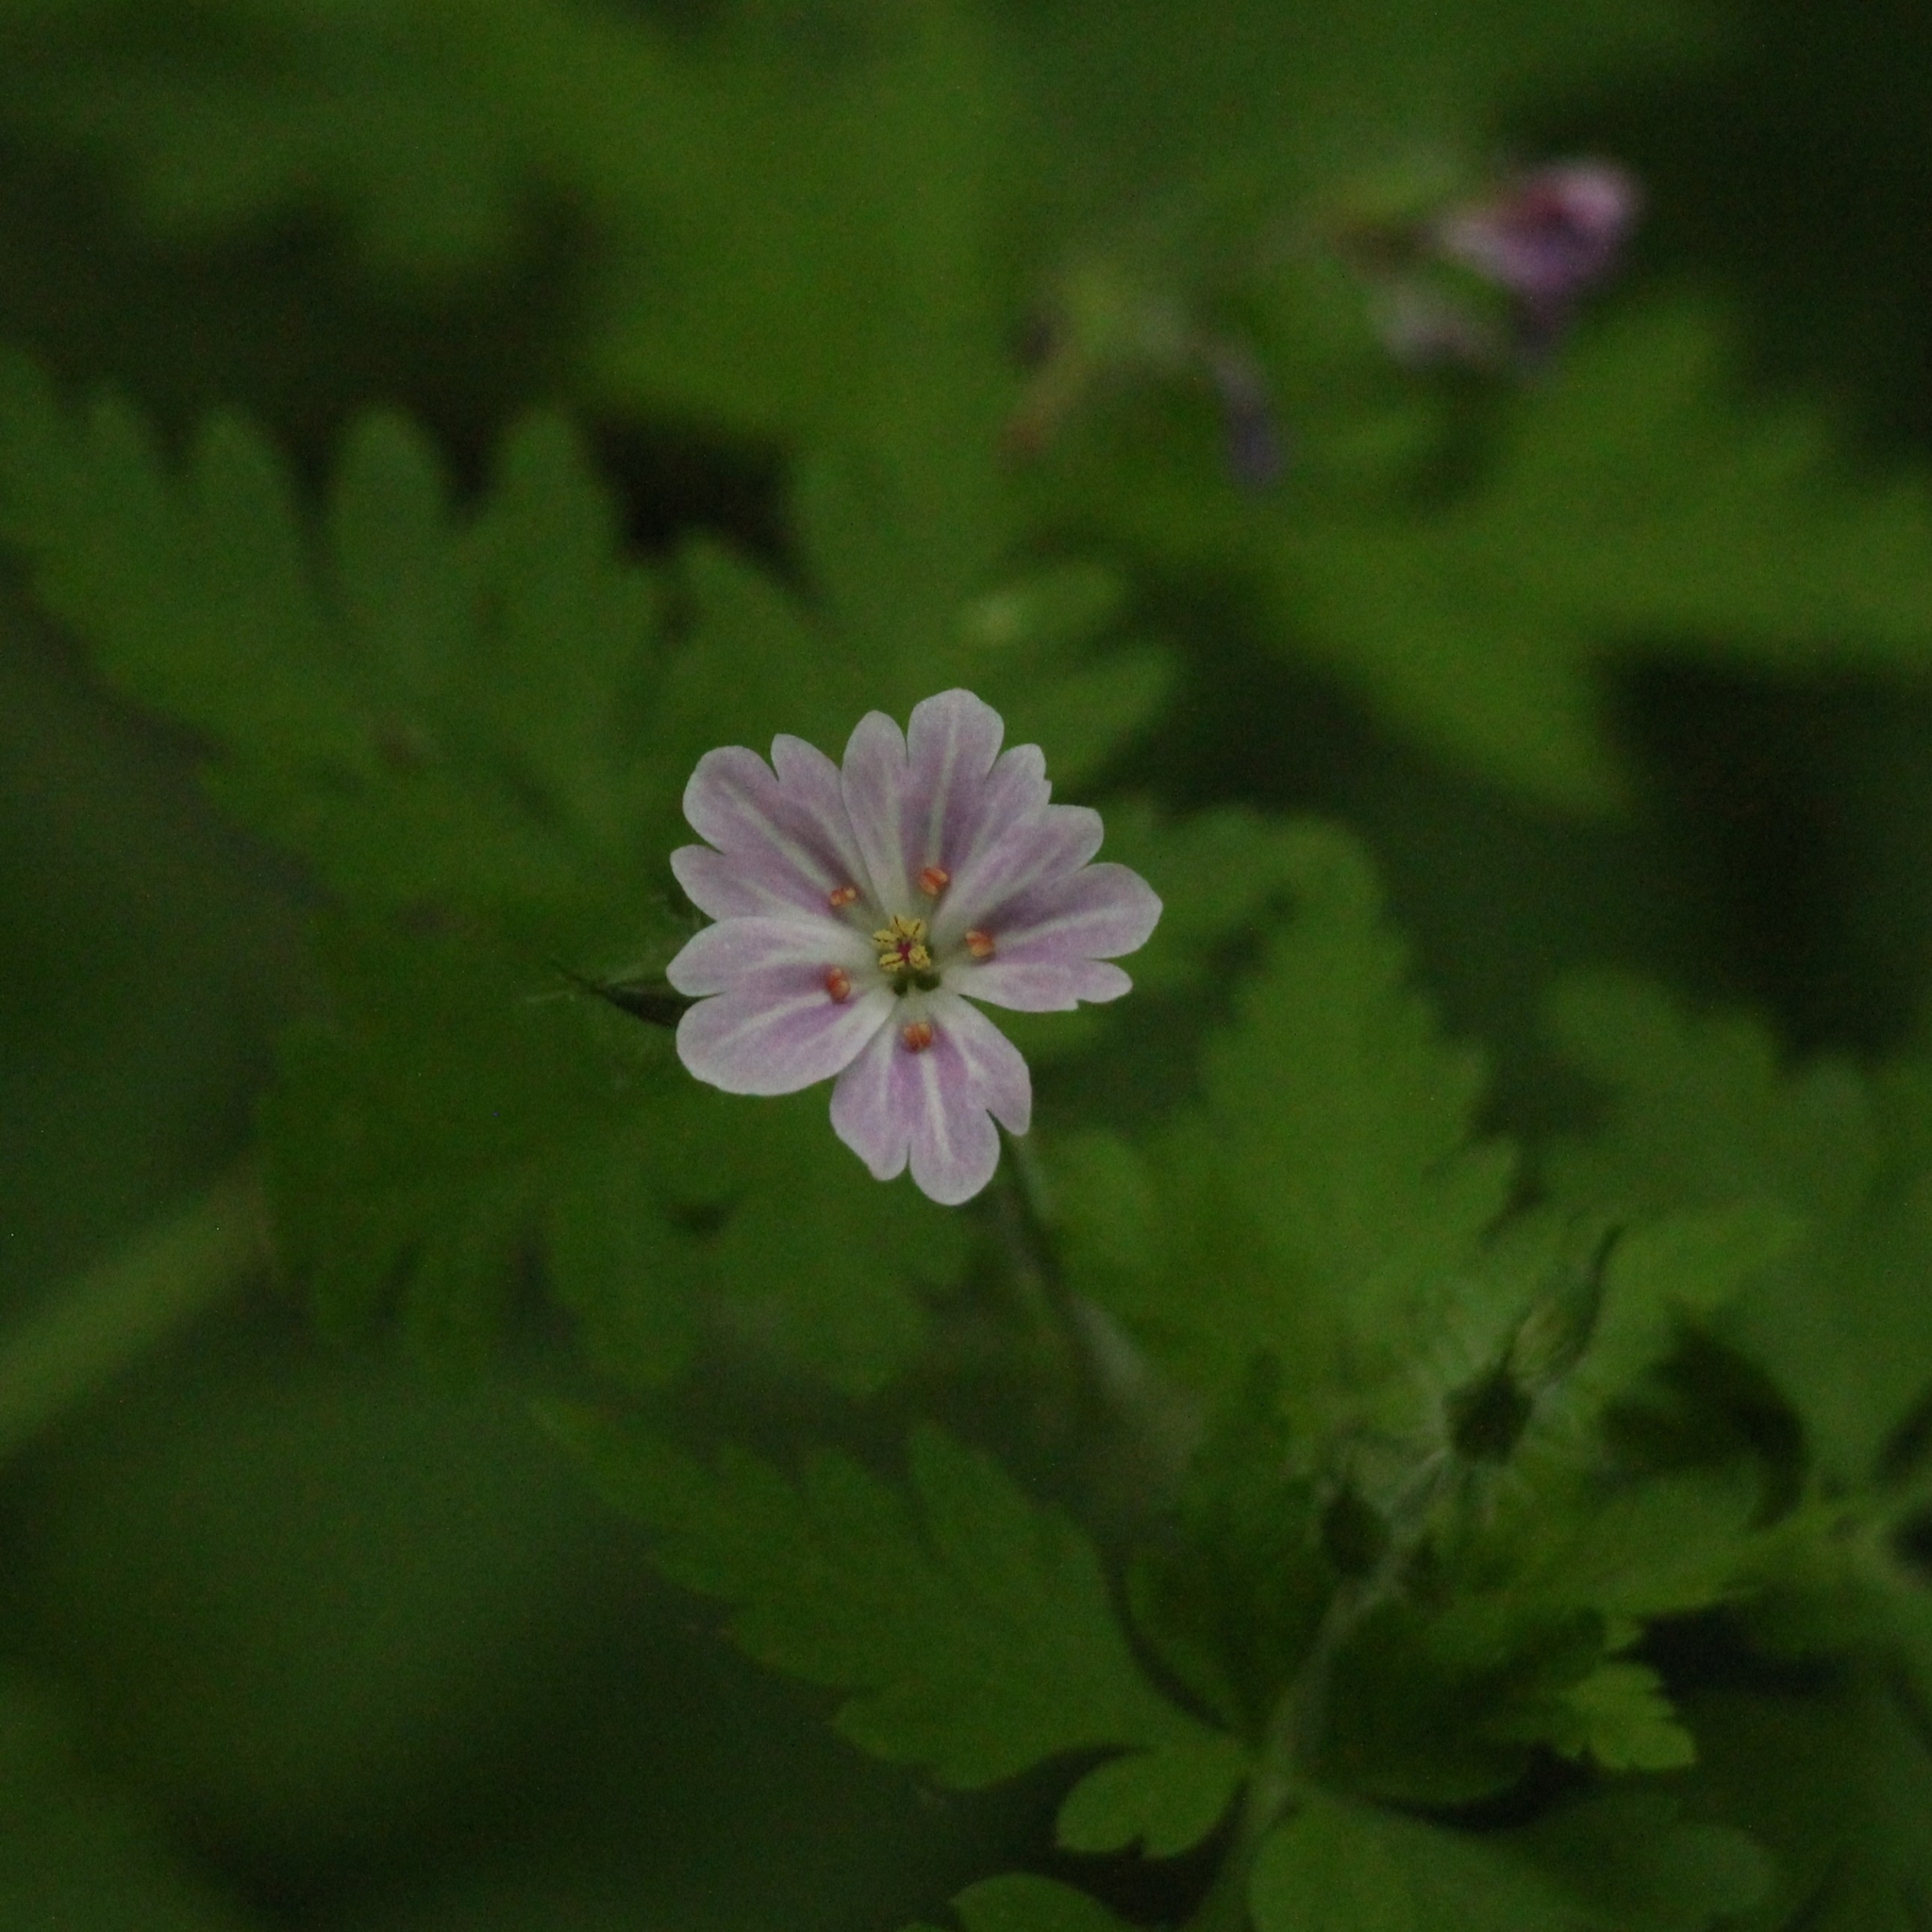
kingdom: Plantae
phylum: Tracheophyta
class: Magnoliopsida
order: Geraniales
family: Geraniaceae
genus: Geranium
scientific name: Geranium robertianum
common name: Herb-robert
